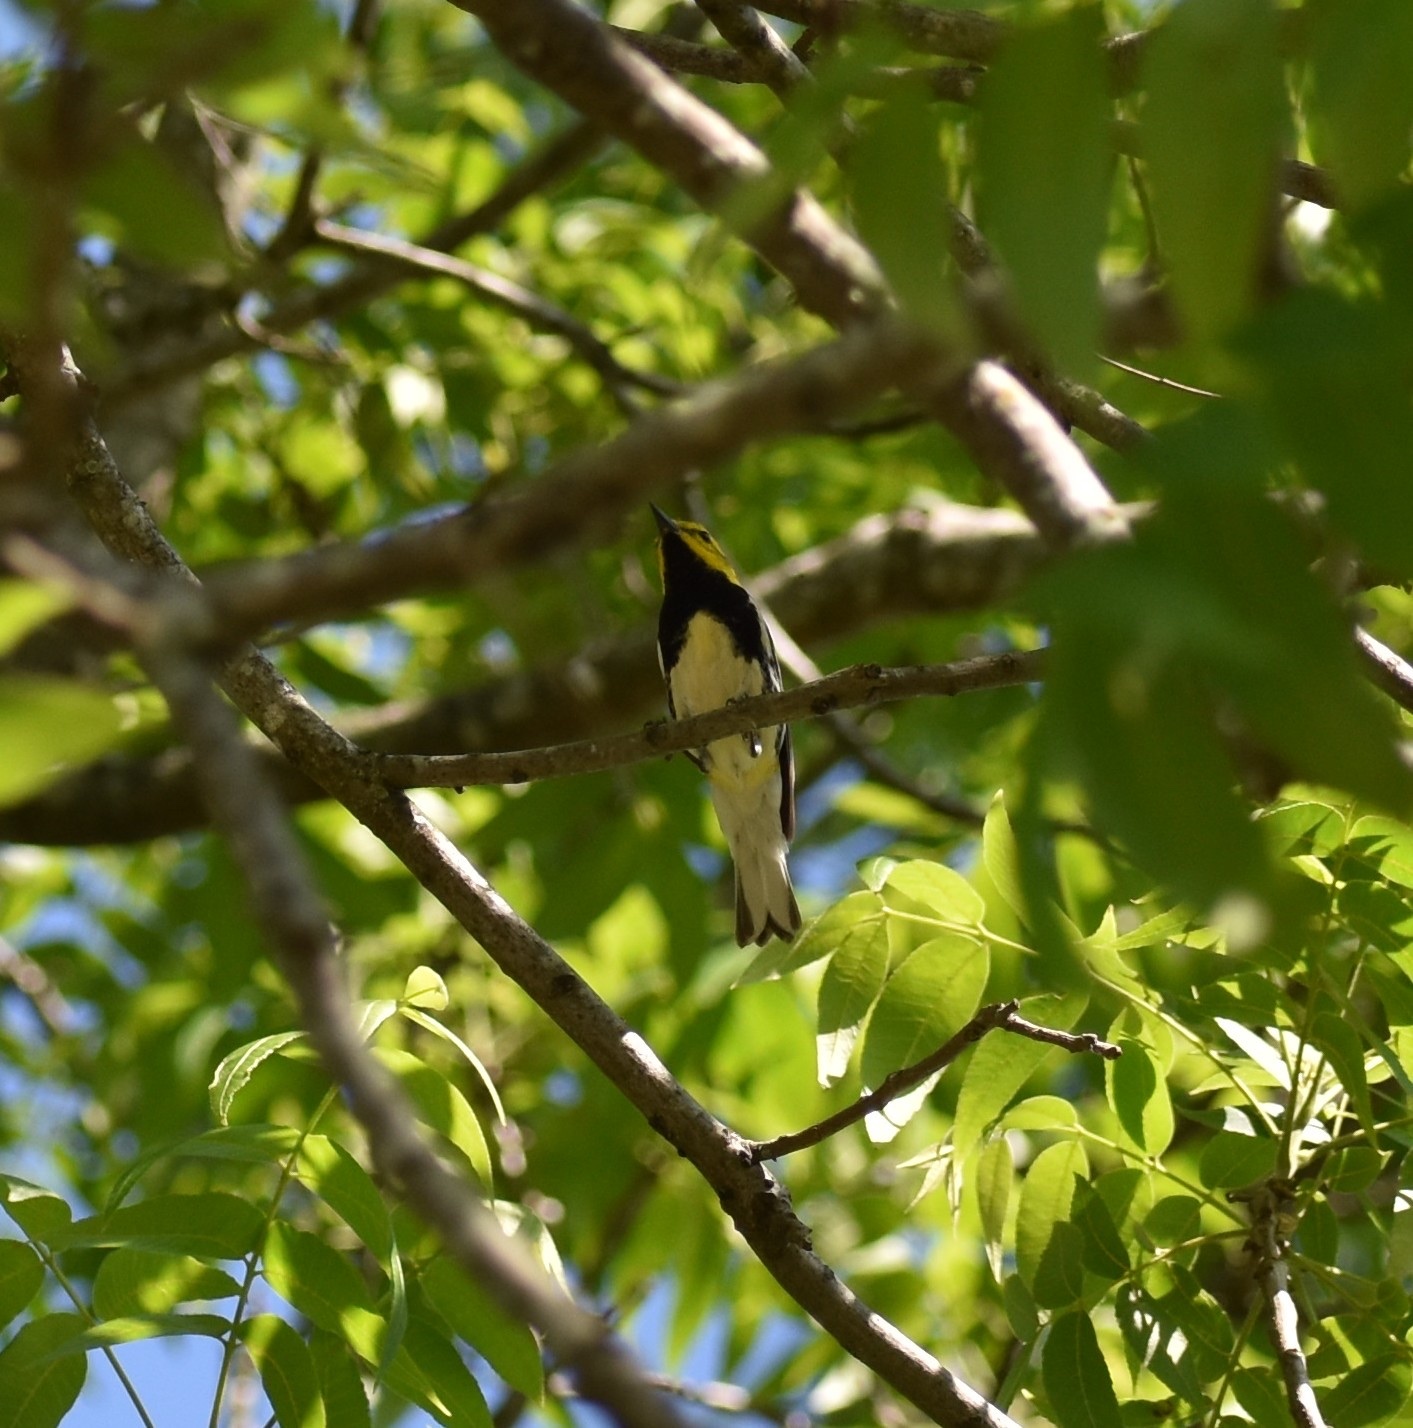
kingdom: Animalia
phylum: Chordata
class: Aves
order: Passeriformes
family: Parulidae
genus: Setophaga
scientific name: Setophaga virens
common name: Black-throated green warbler
